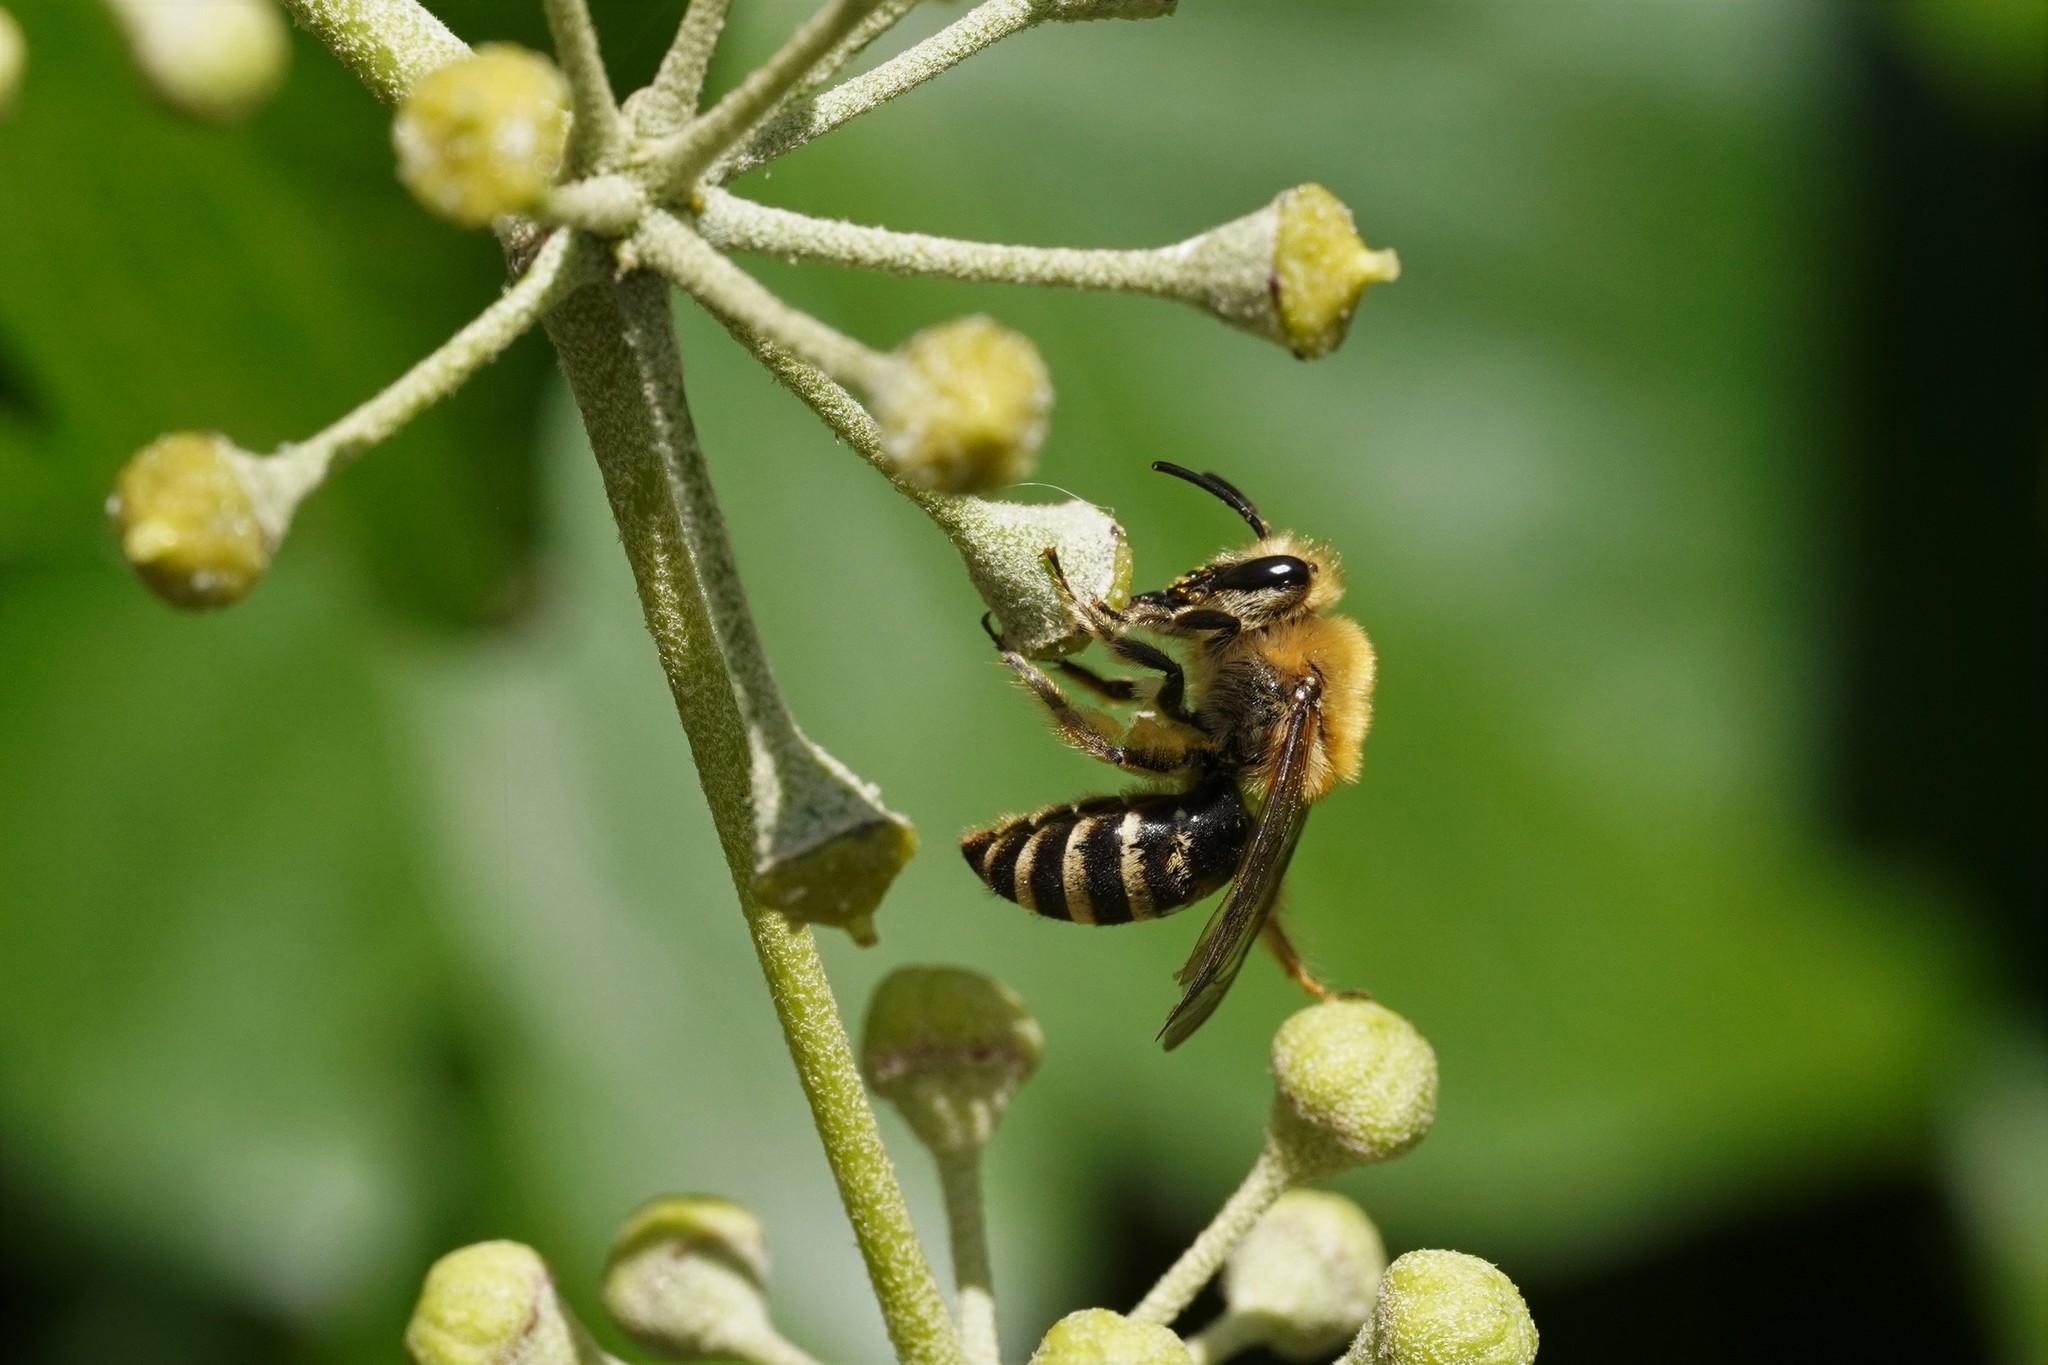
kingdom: Animalia
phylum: Arthropoda
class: Insecta
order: Hymenoptera
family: Colletidae
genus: Colletes
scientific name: Colletes hederae
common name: Ivy bee
